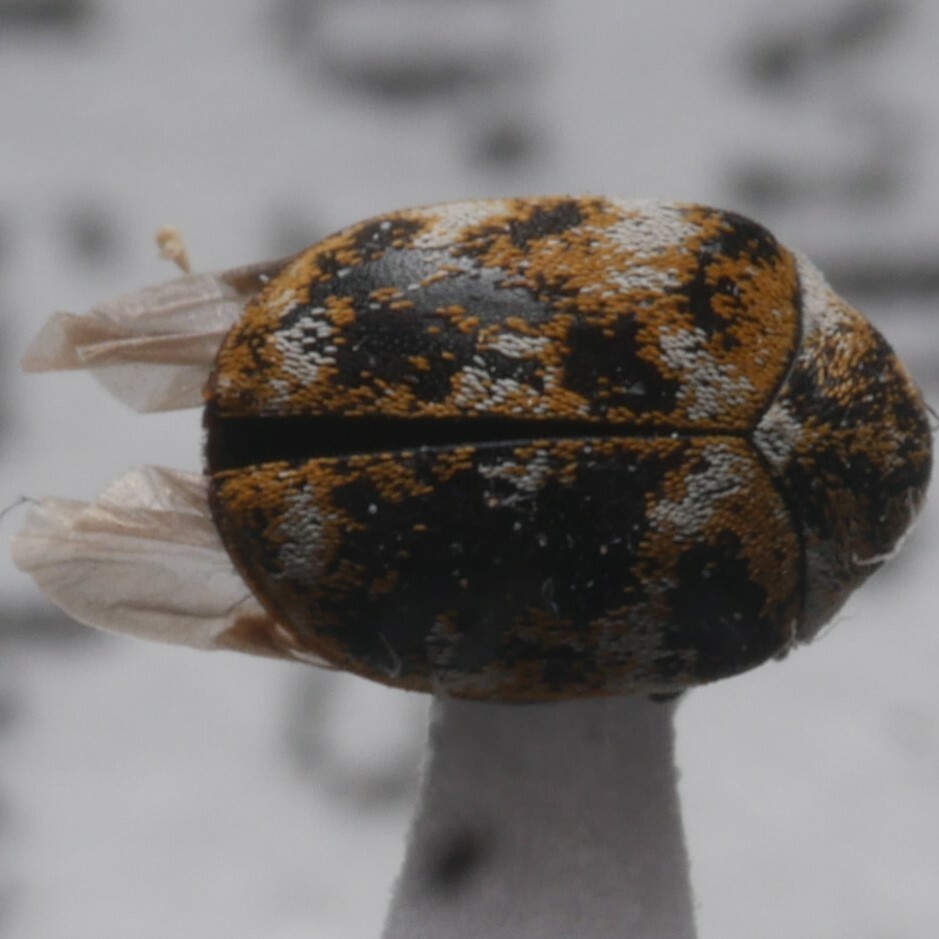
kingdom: Animalia
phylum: Arthropoda
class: Insecta
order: Coleoptera
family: Dermestidae
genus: Anthrenus
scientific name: Anthrenus verbasci
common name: Varied carpet beetle
